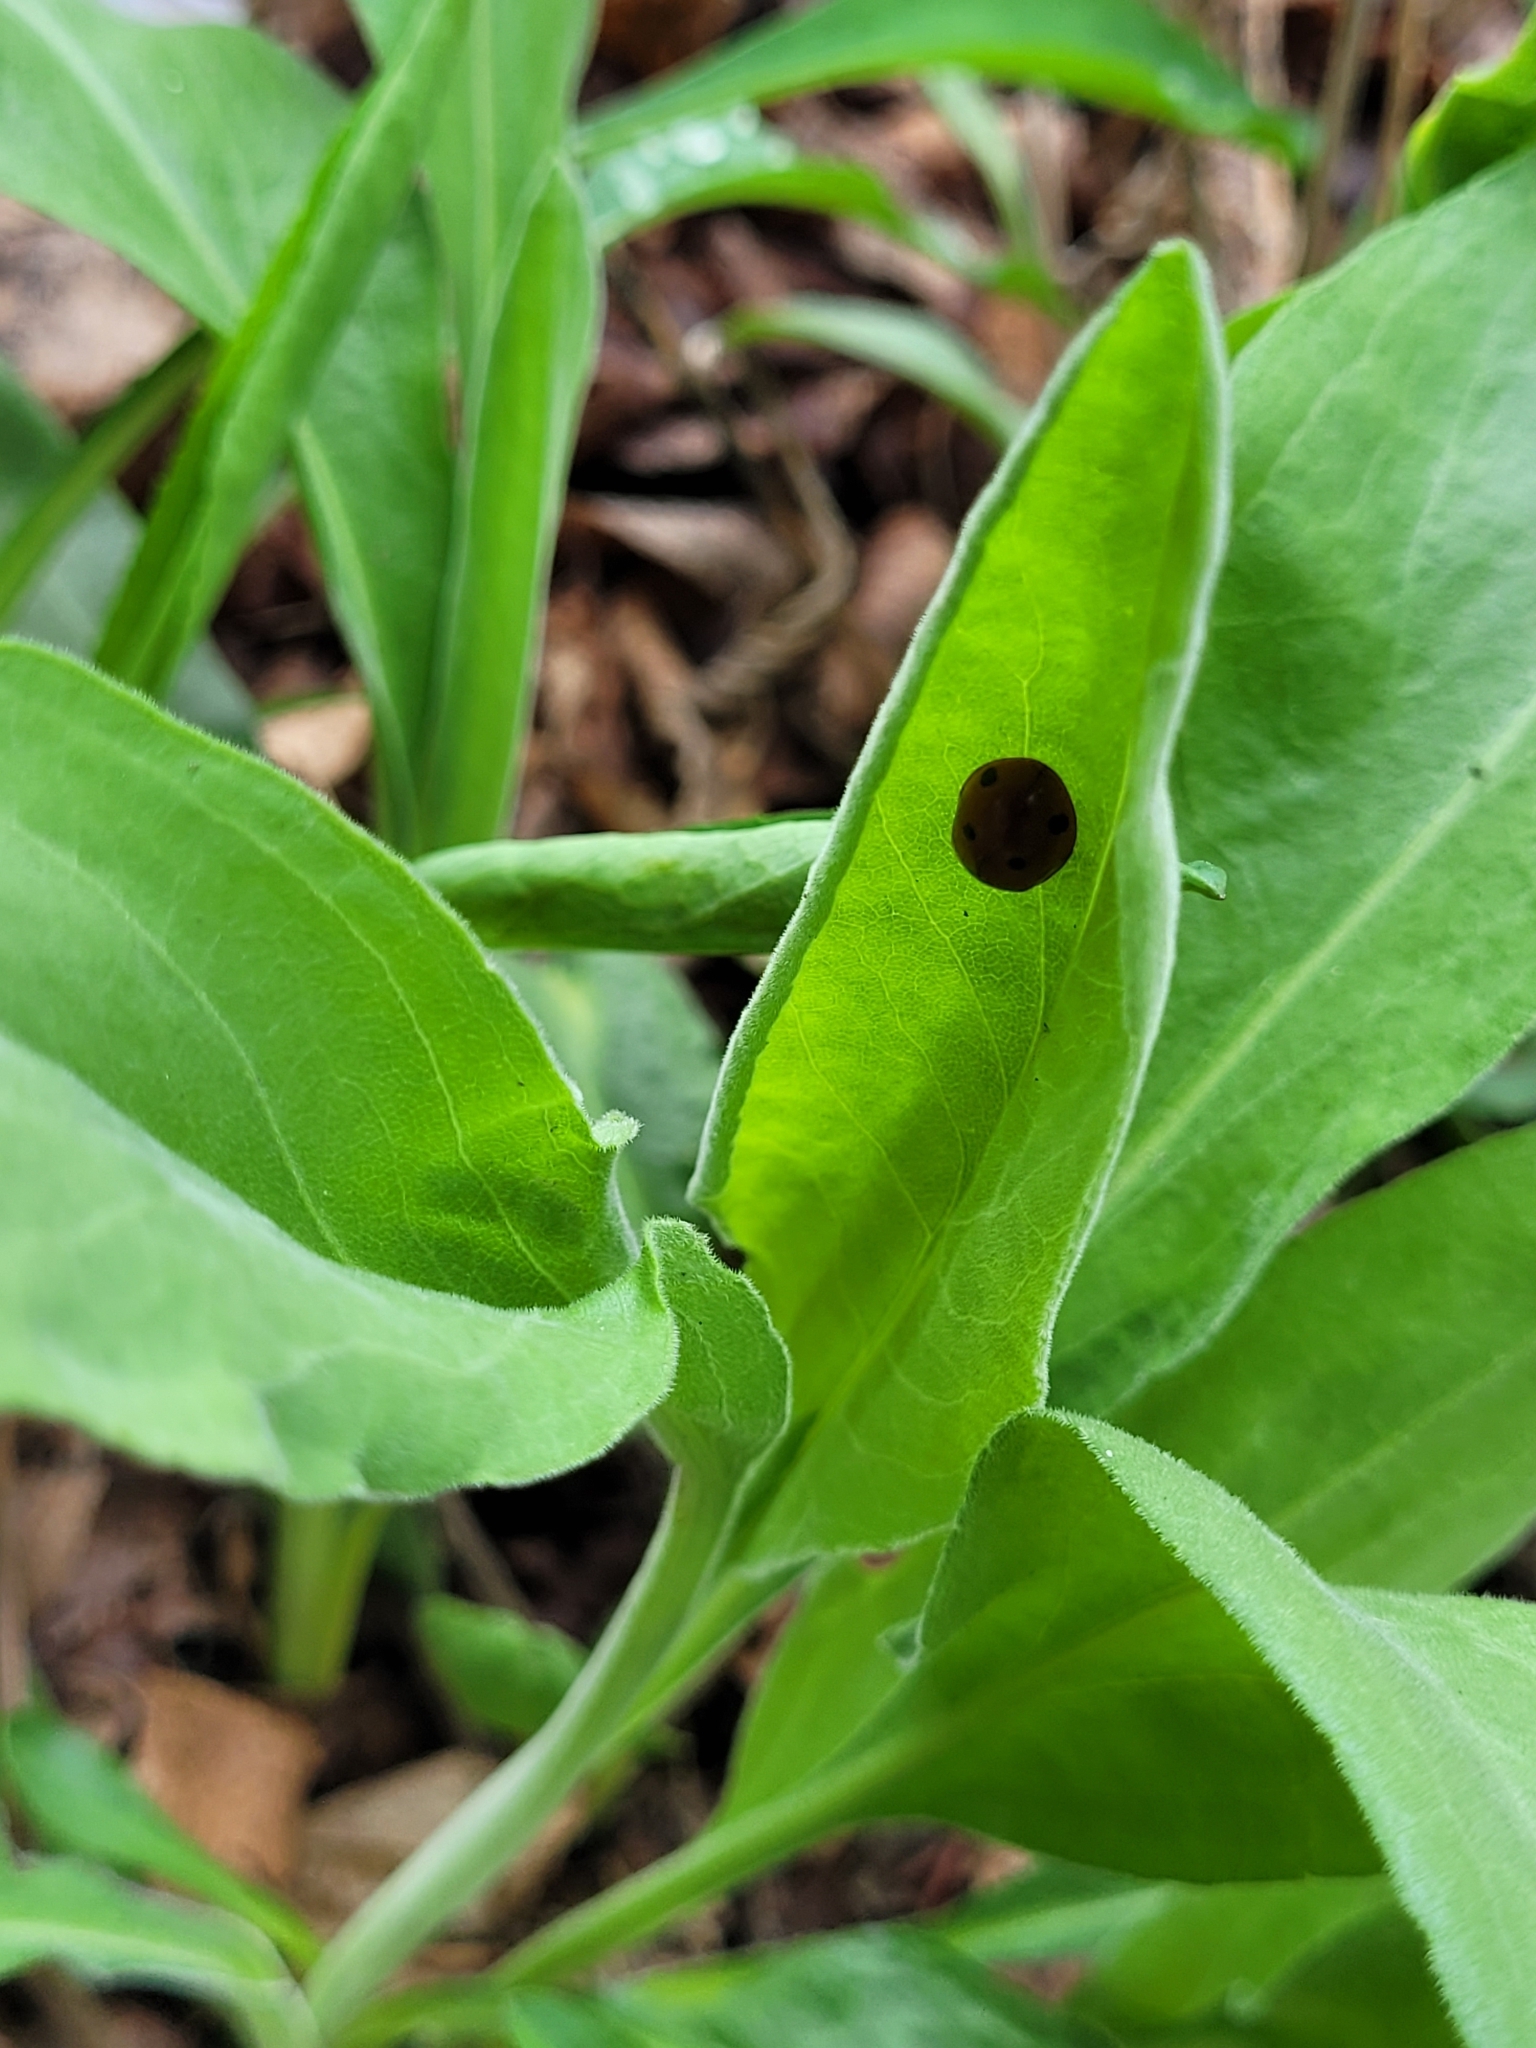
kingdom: Animalia
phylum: Arthropoda
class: Insecta
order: Coleoptera
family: Coccinellidae
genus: Coccinella
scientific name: Coccinella septempunctata
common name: Sevenspotted lady beetle
